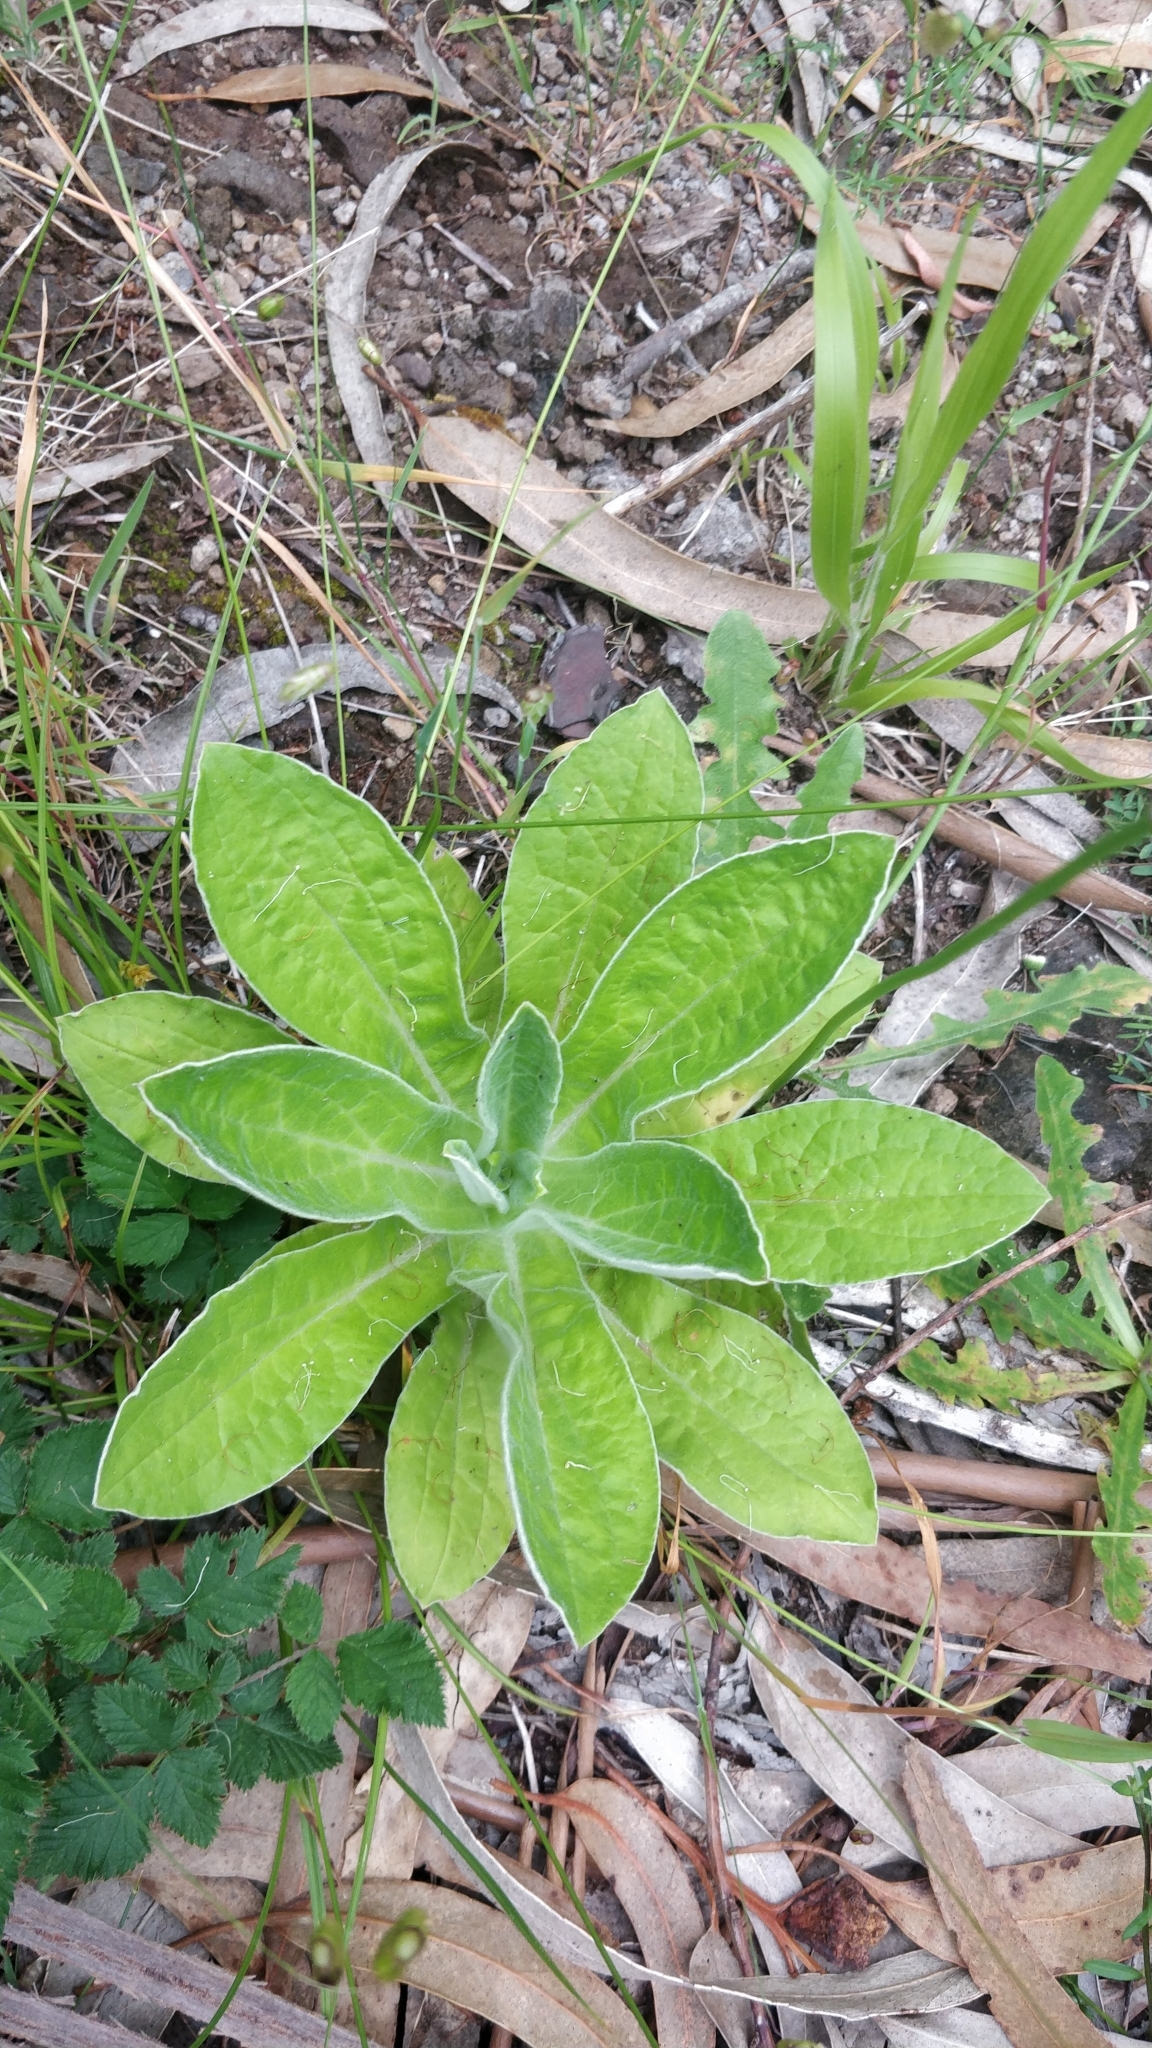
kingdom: Plantae
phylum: Tracheophyta
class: Magnoliopsida
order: Asterales
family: Asteraceae
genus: Helichrysum
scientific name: Helichrysum foetidum
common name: Stinking everlasting
